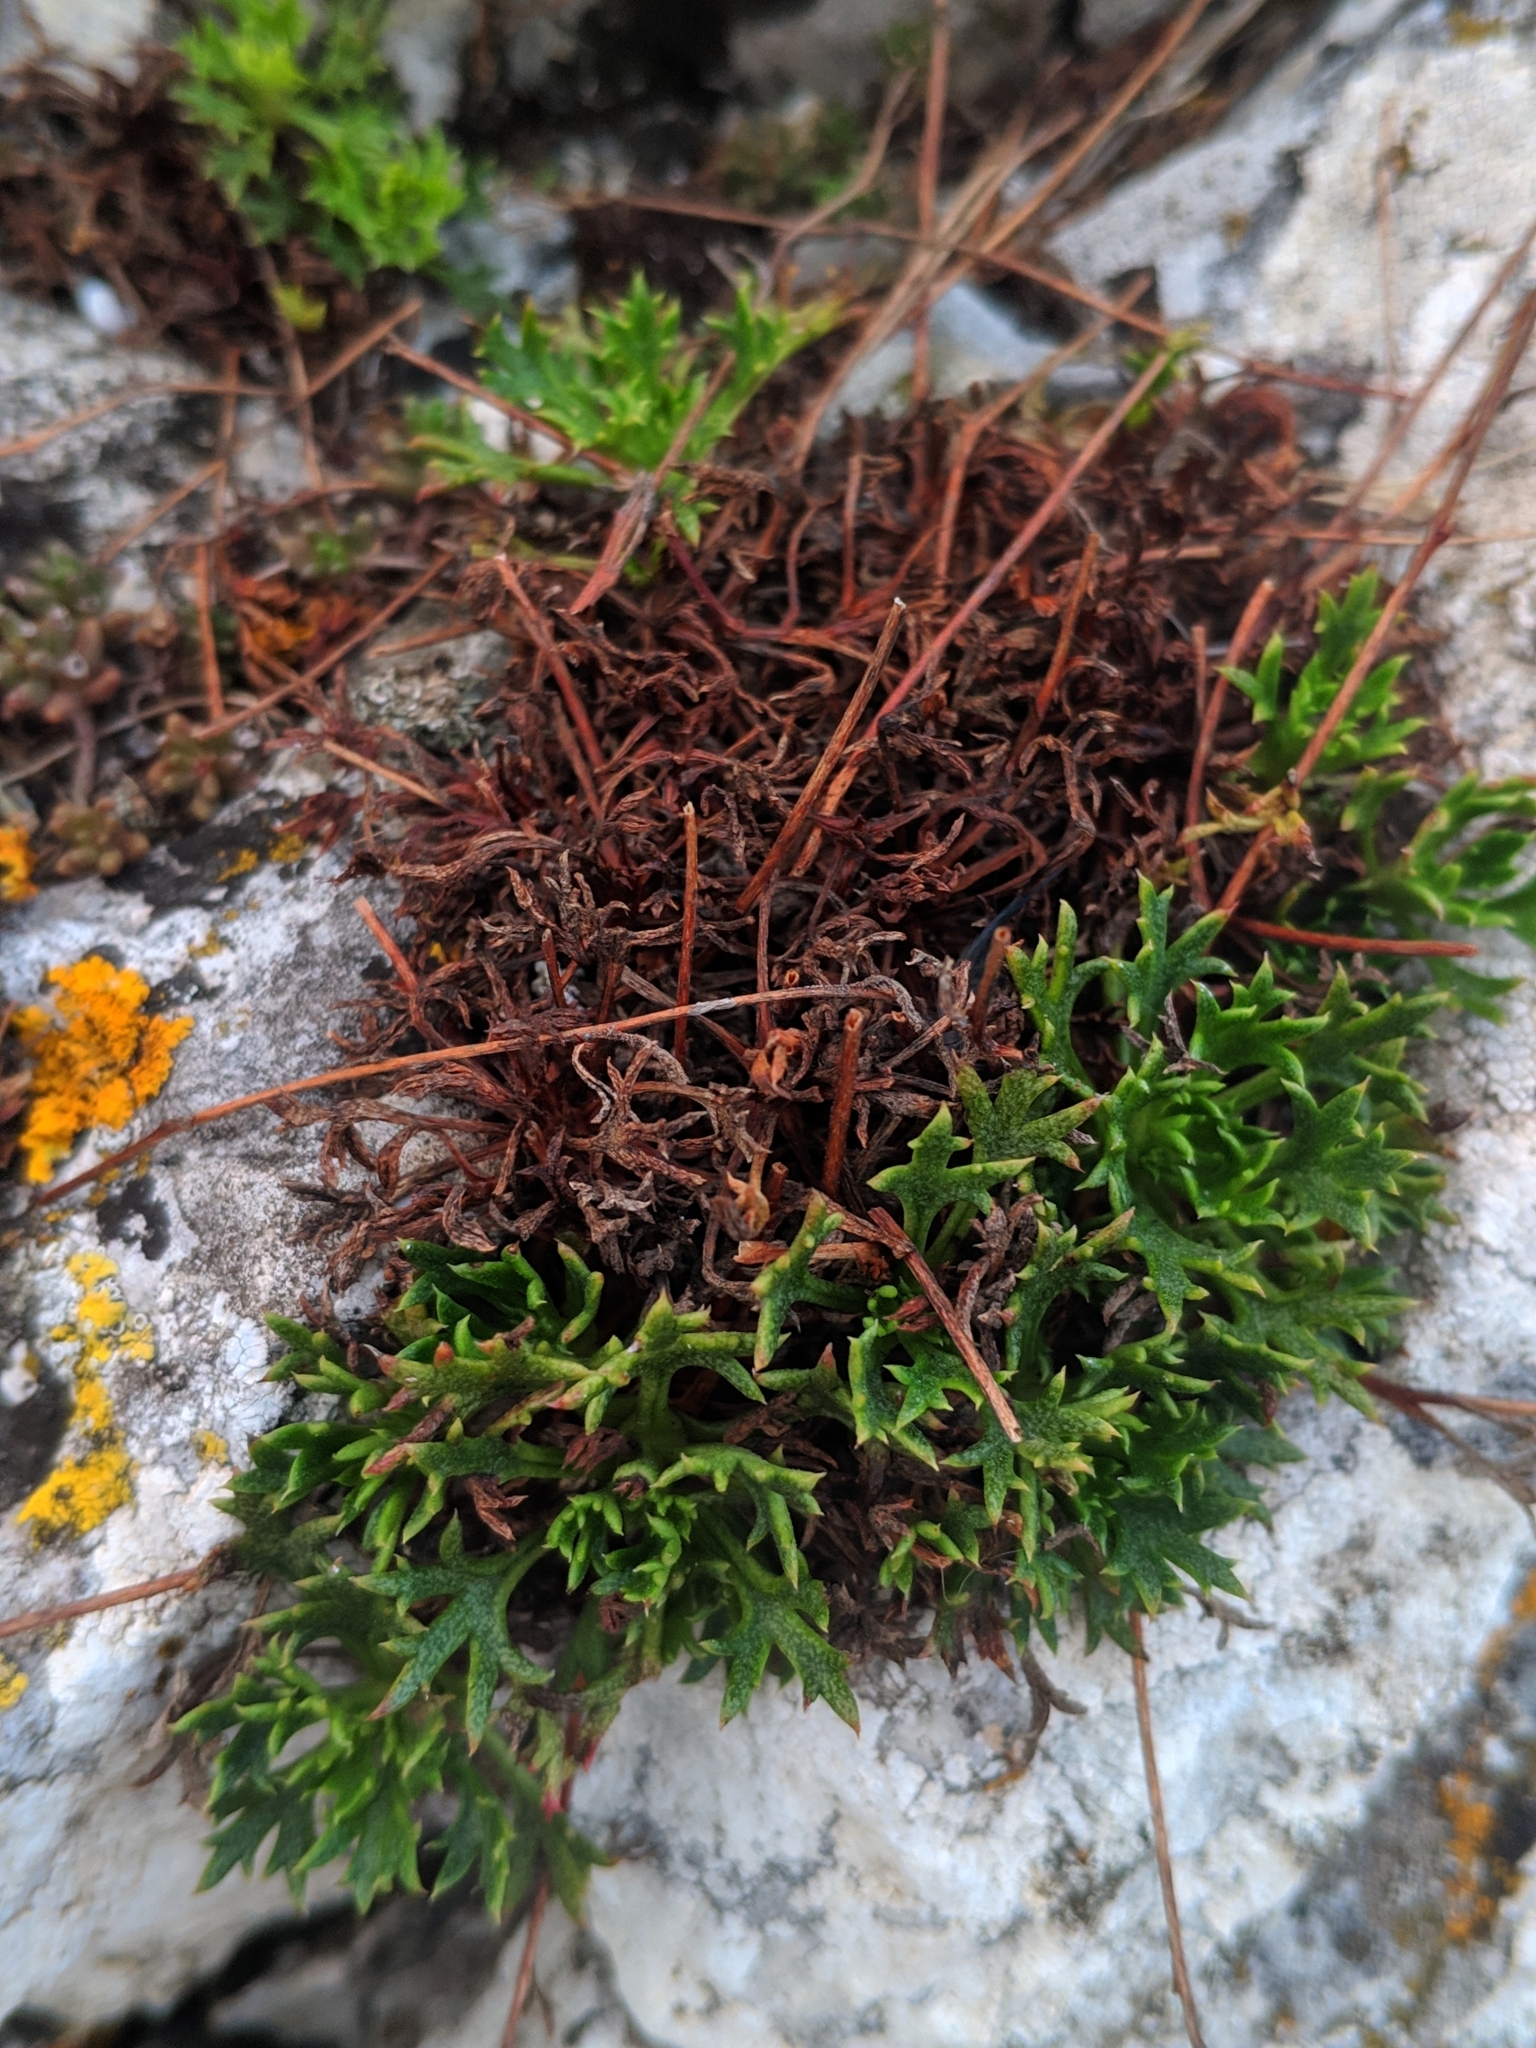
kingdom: Plantae
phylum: Tracheophyta
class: Magnoliopsida
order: Saxifragales
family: Saxifragaceae
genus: Saxifraga
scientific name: Saxifraga trifurcata
